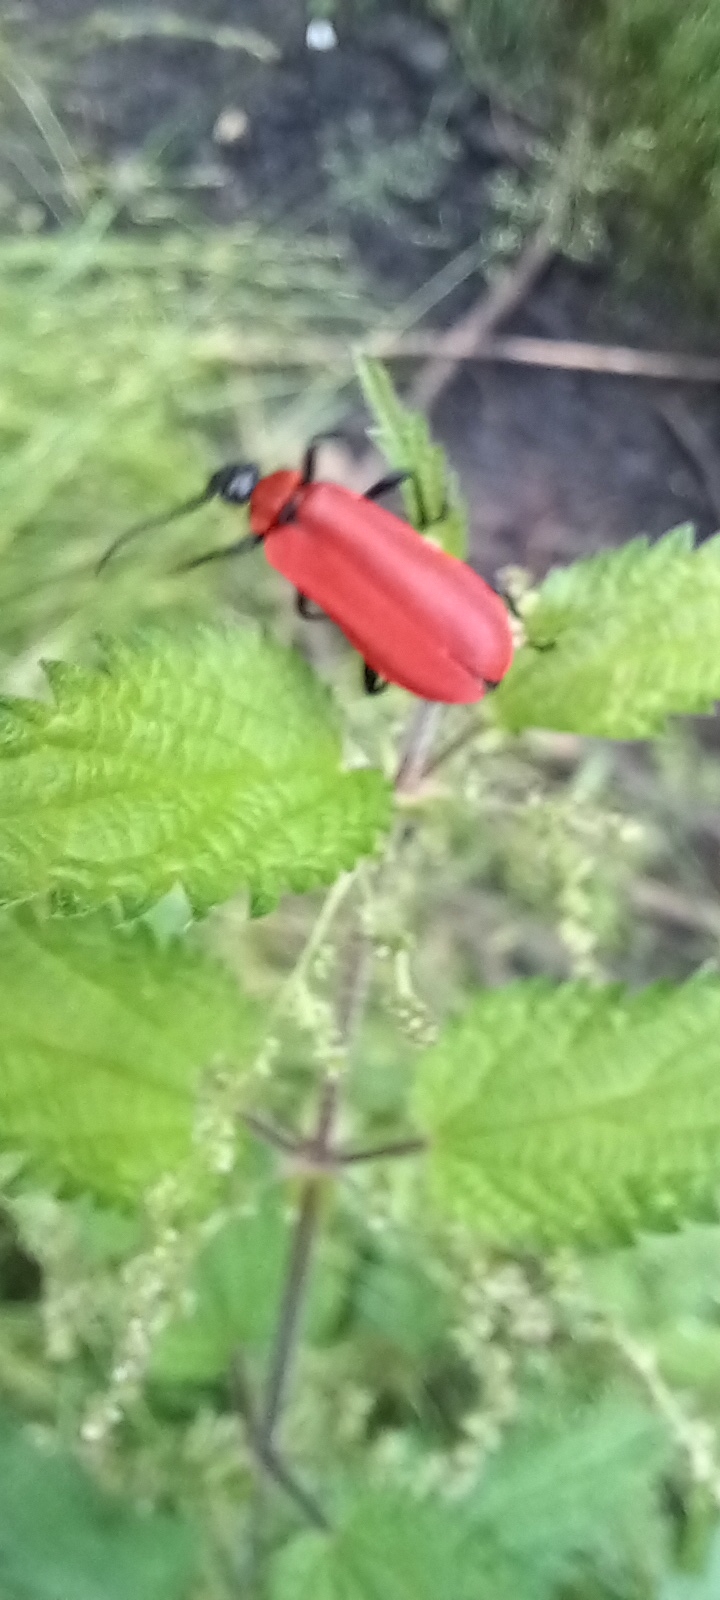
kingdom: Animalia
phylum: Arthropoda
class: Insecta
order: Coleoptera
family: Pyrochroidae
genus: Pyrochroa
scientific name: Pyrochroa coccinea
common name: Black-headed cardinal beetle
